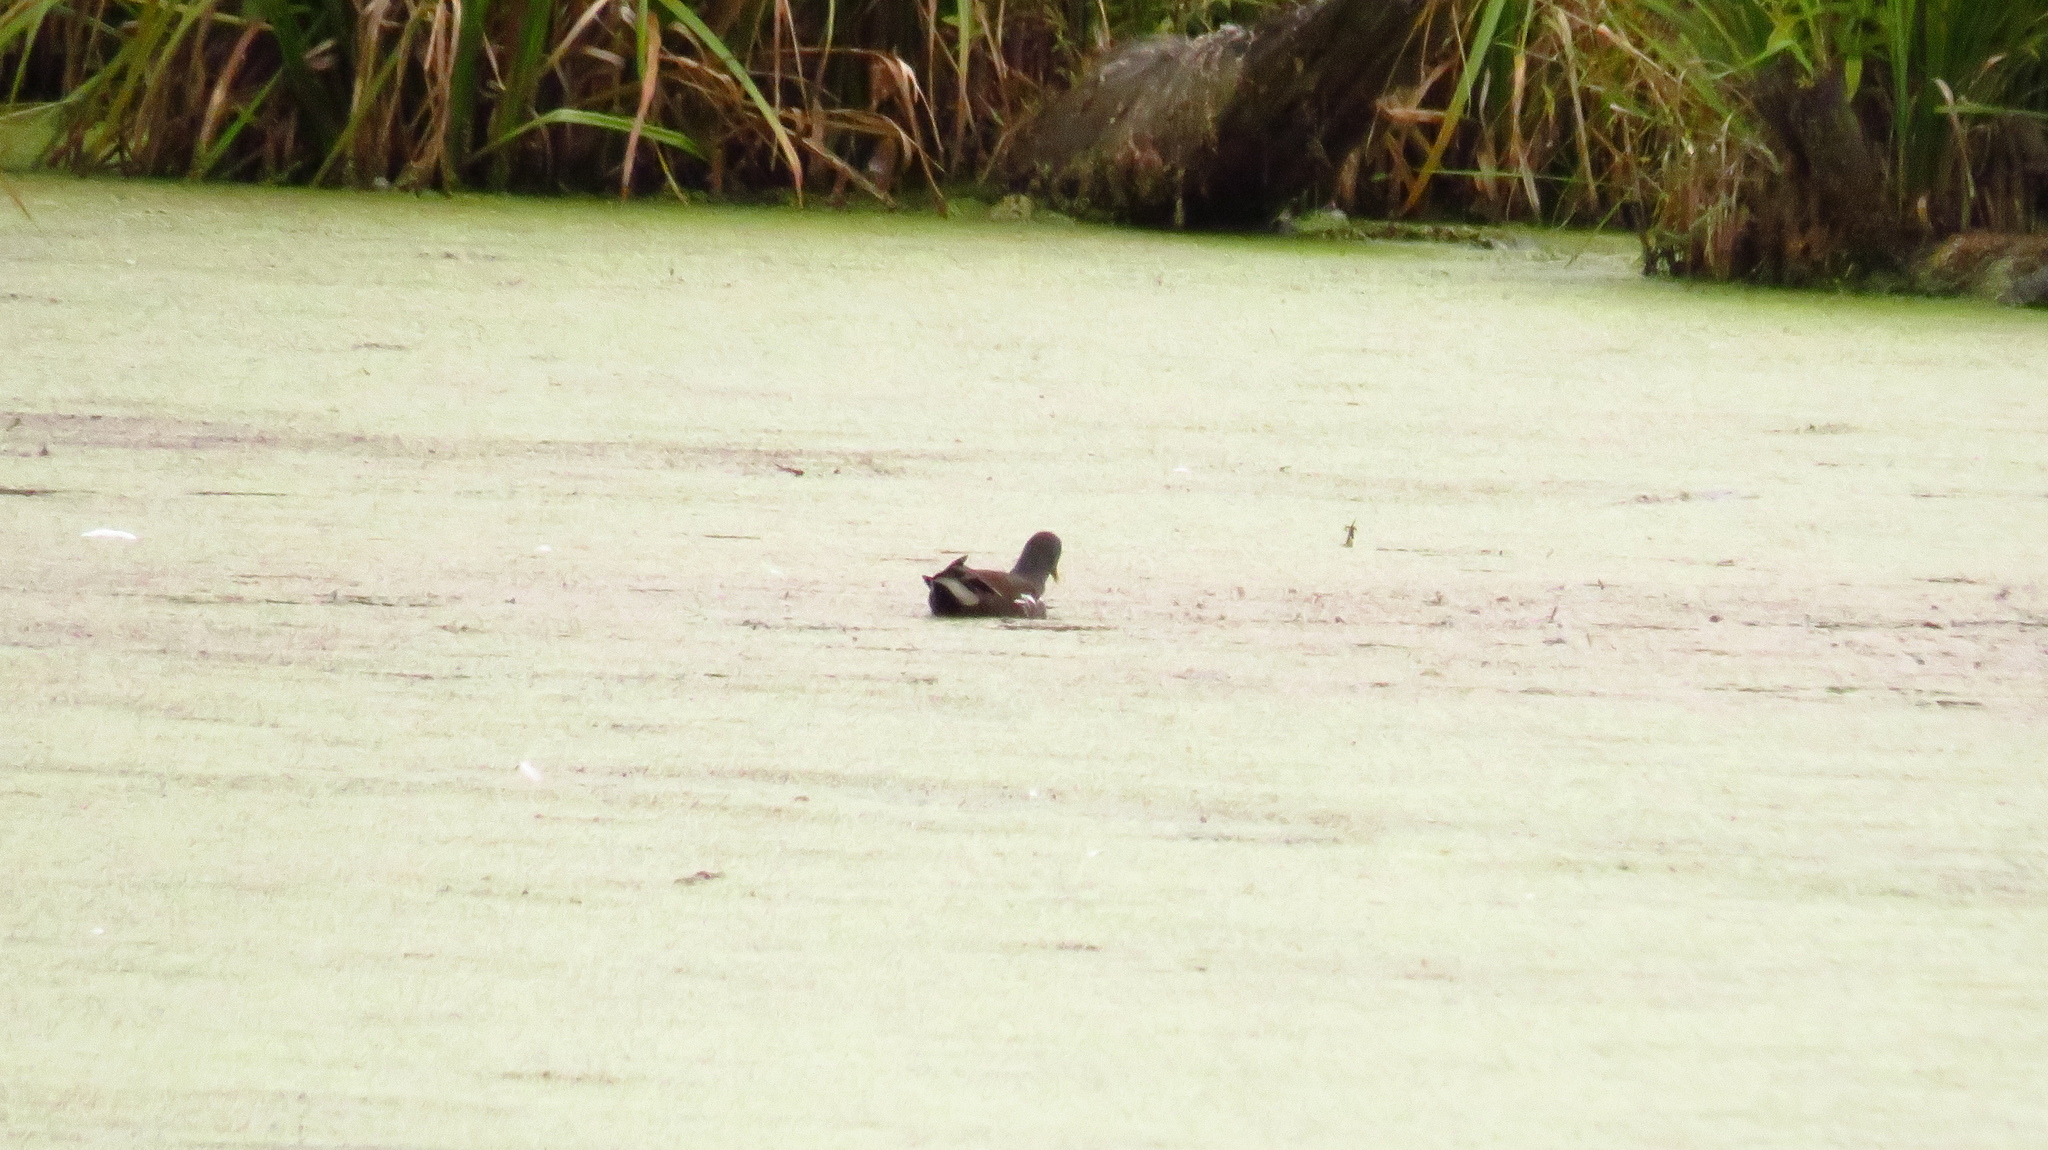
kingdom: Animalia
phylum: Chordata
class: Aves
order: Gruiformes
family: Rallidae
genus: Gallinula
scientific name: Gallinula chloropus
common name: Common moorhen
